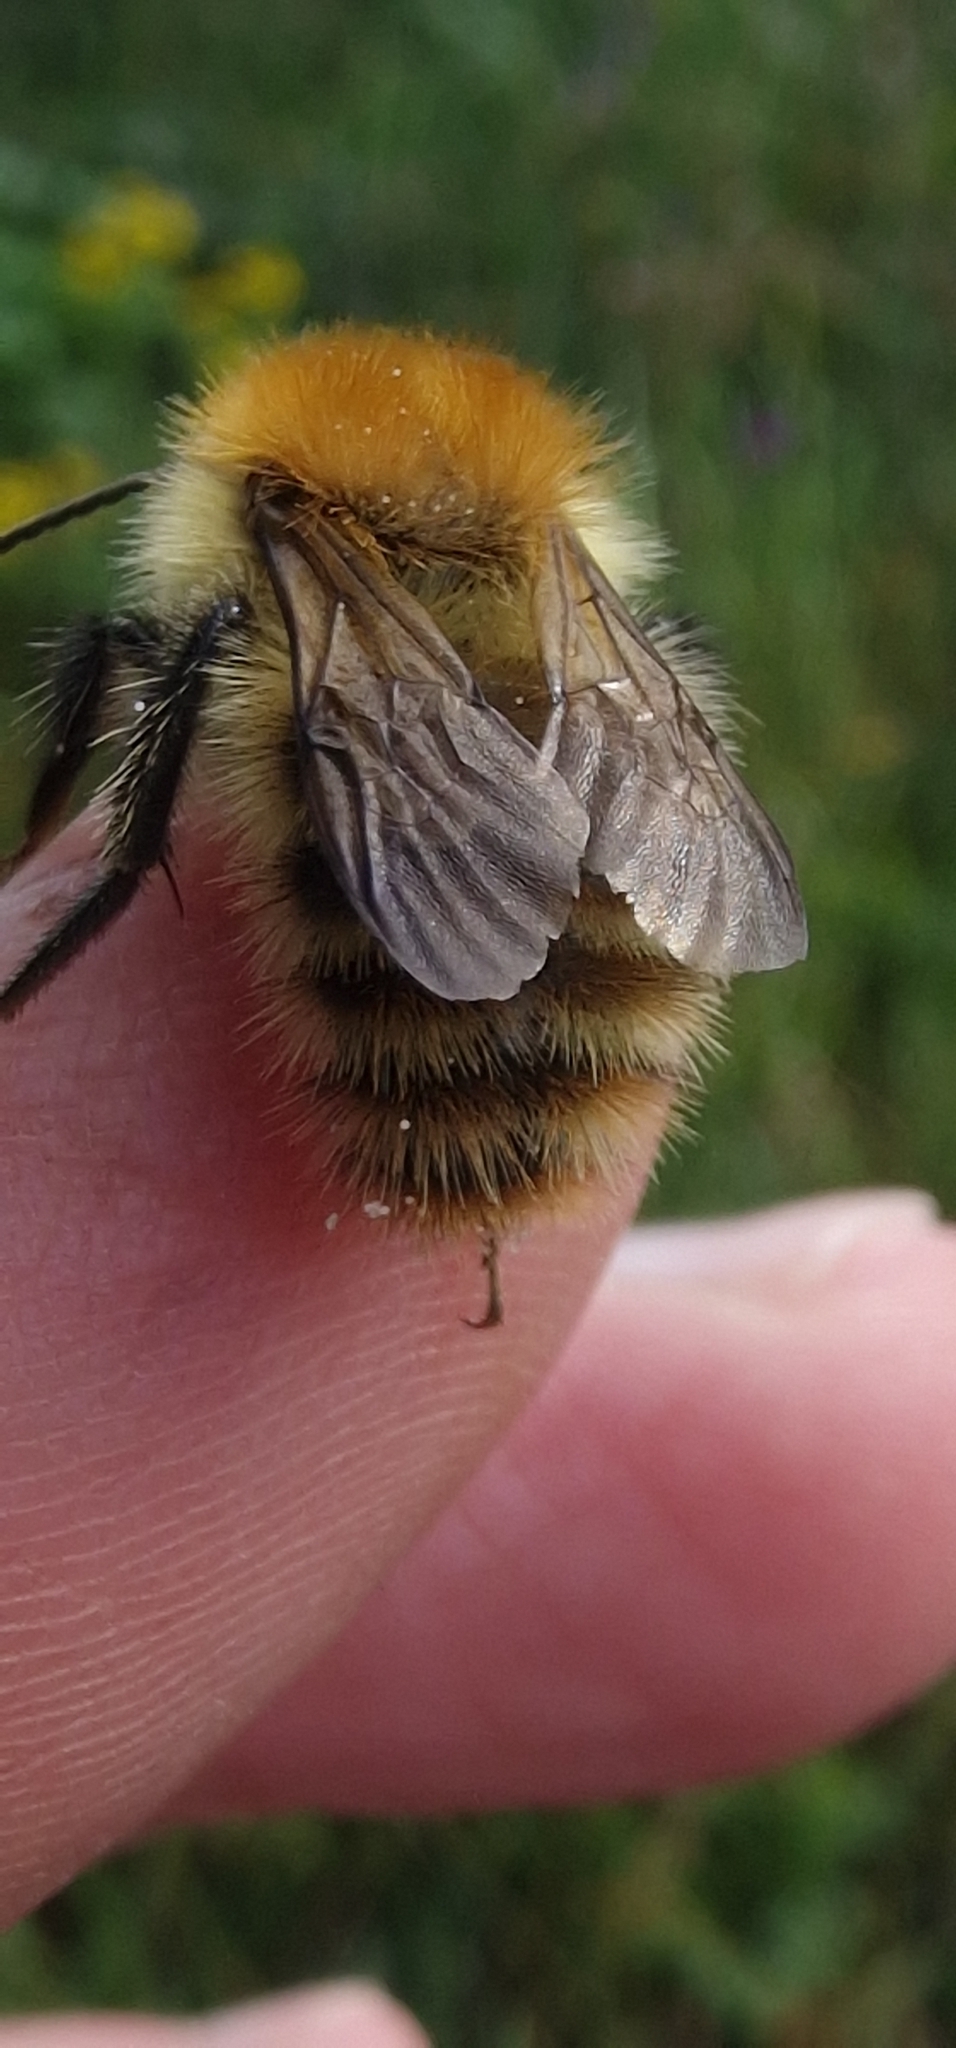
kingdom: Animalia
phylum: Arthropoda
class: Insecta
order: Hymenoptera
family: Apidae
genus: Bombus
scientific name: Bombus pascuorum
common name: Common carder bee
